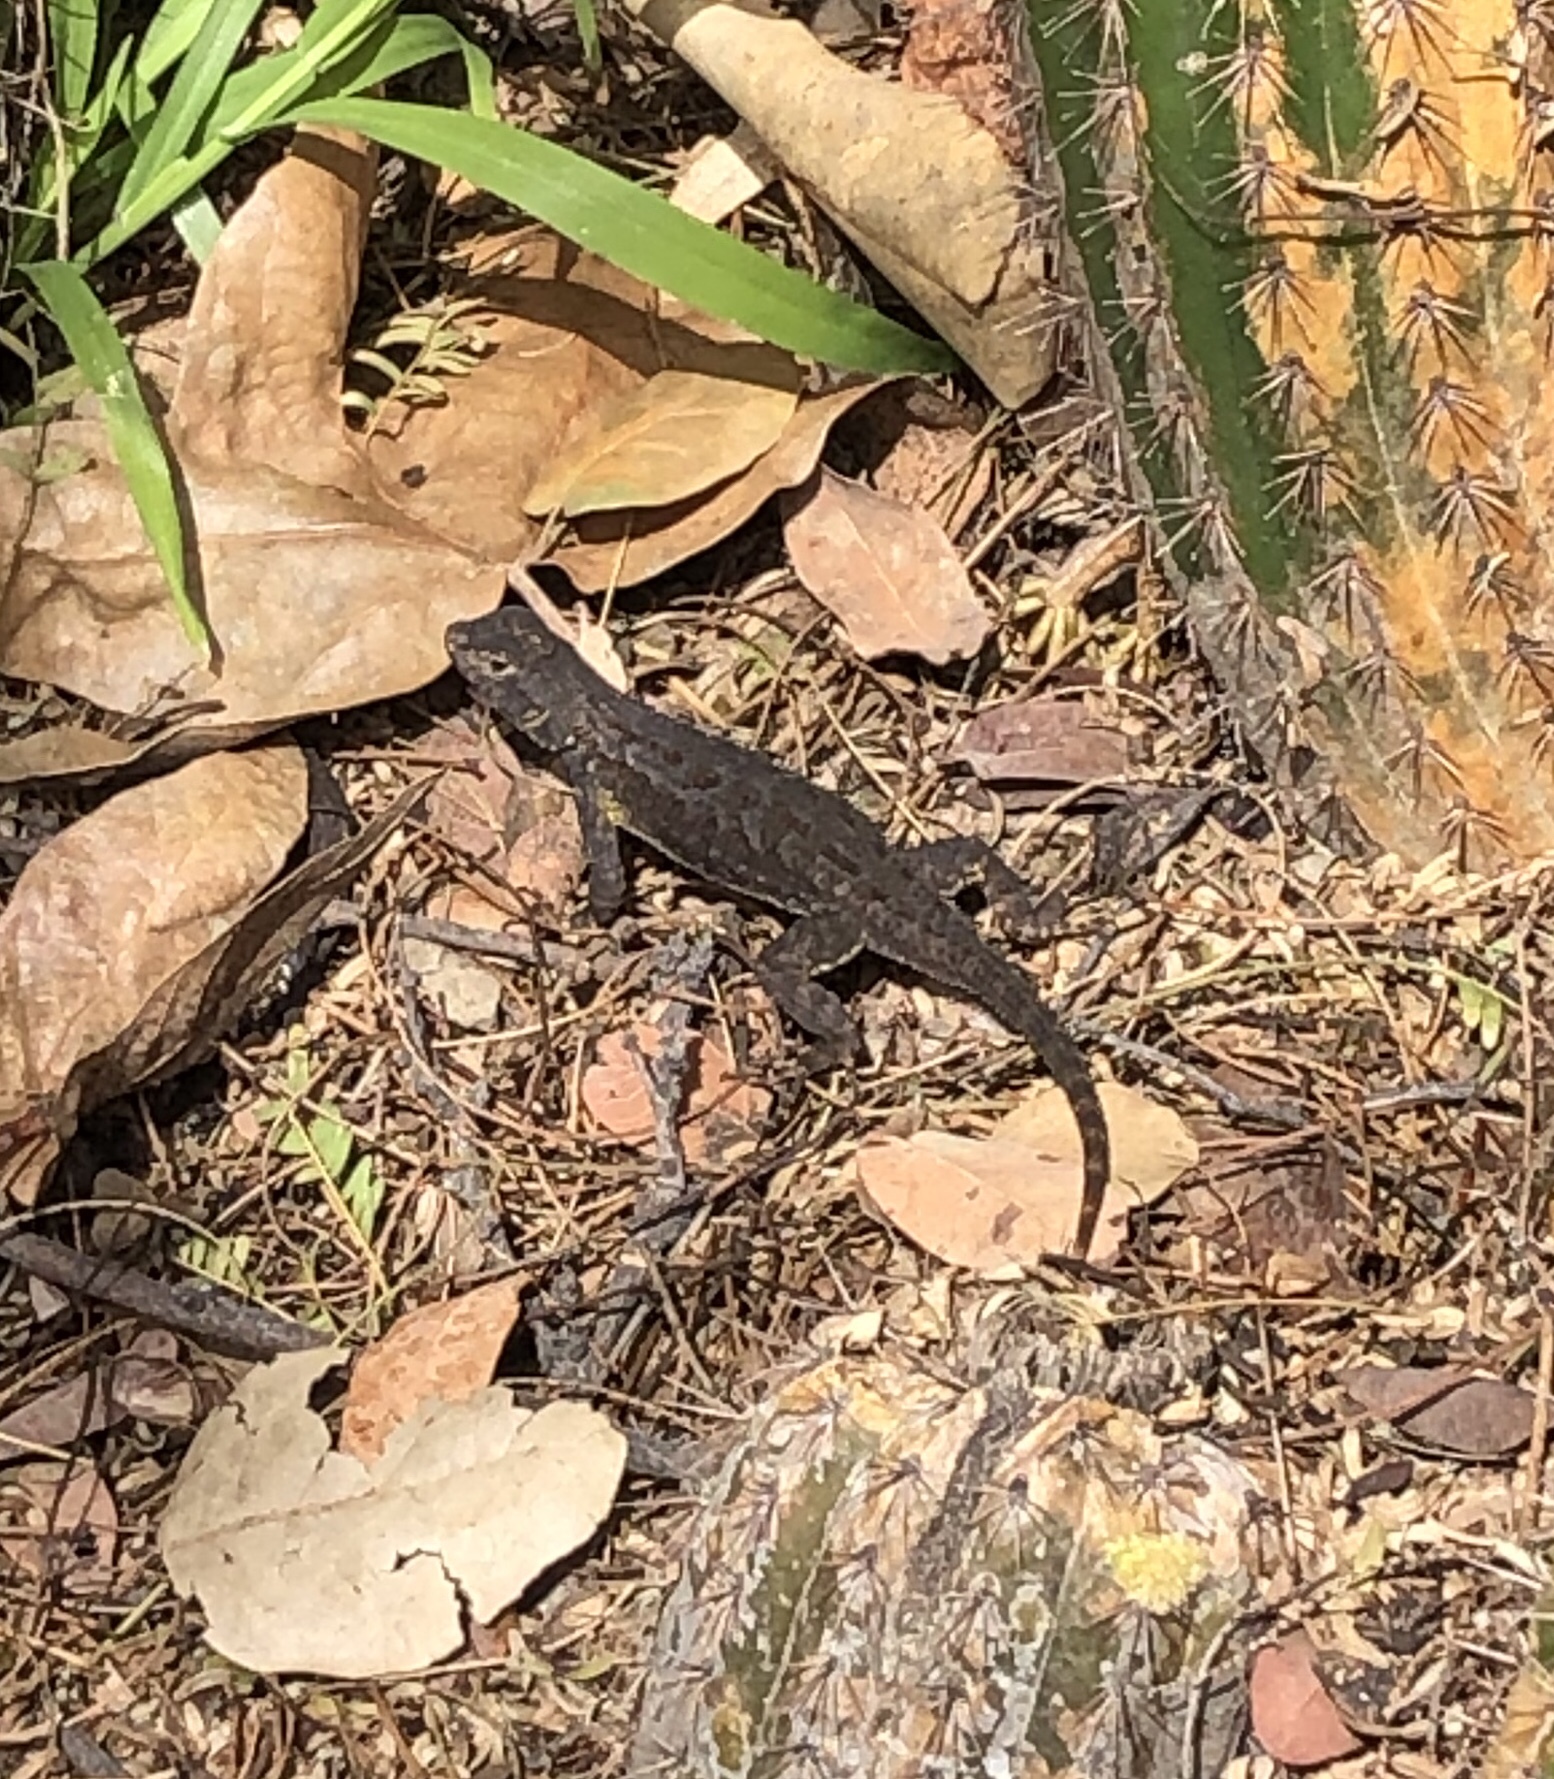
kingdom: Animalia
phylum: Chordata
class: Squamata
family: Phrynosomatidae
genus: Sceloporus
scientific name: Sceloporus occidentalis
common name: Western fence lizard
